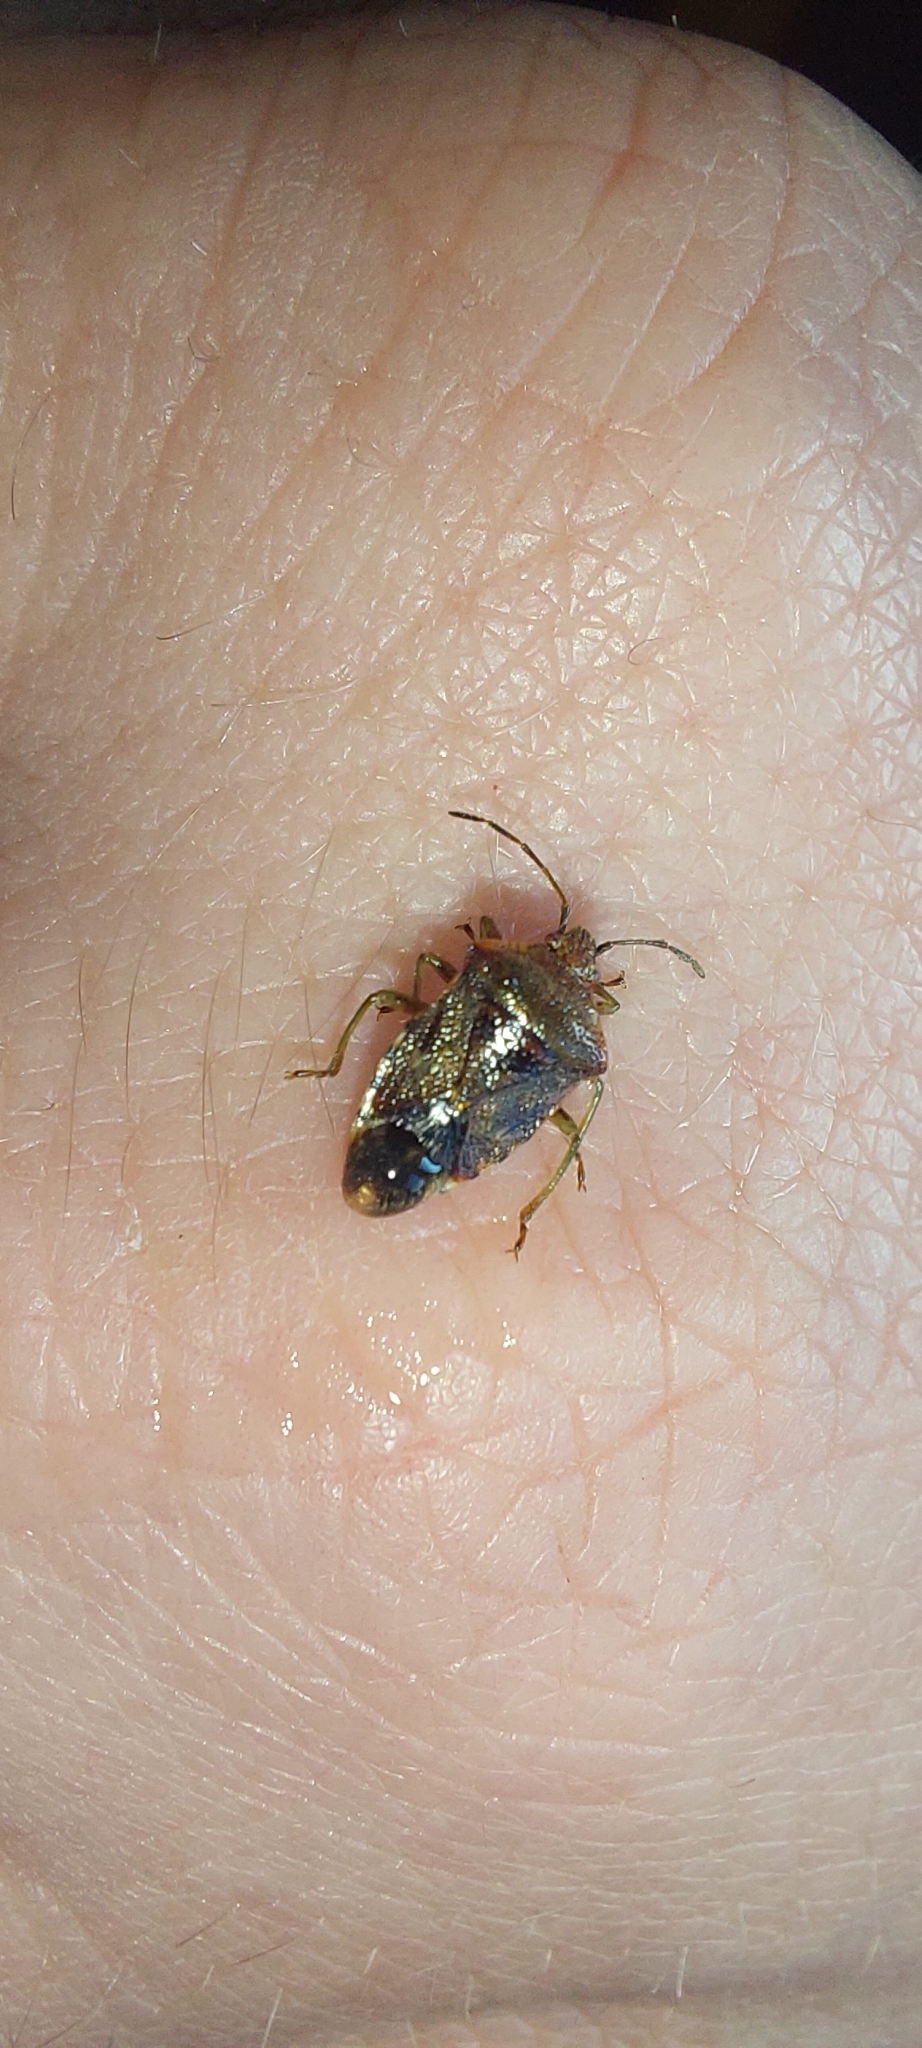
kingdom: Animalia
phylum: Arthropoda
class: Insecta
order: Hemiptera
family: Acanthosomatidae
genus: Elasmucha
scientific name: Elasmucha grisea
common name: Parent bug
